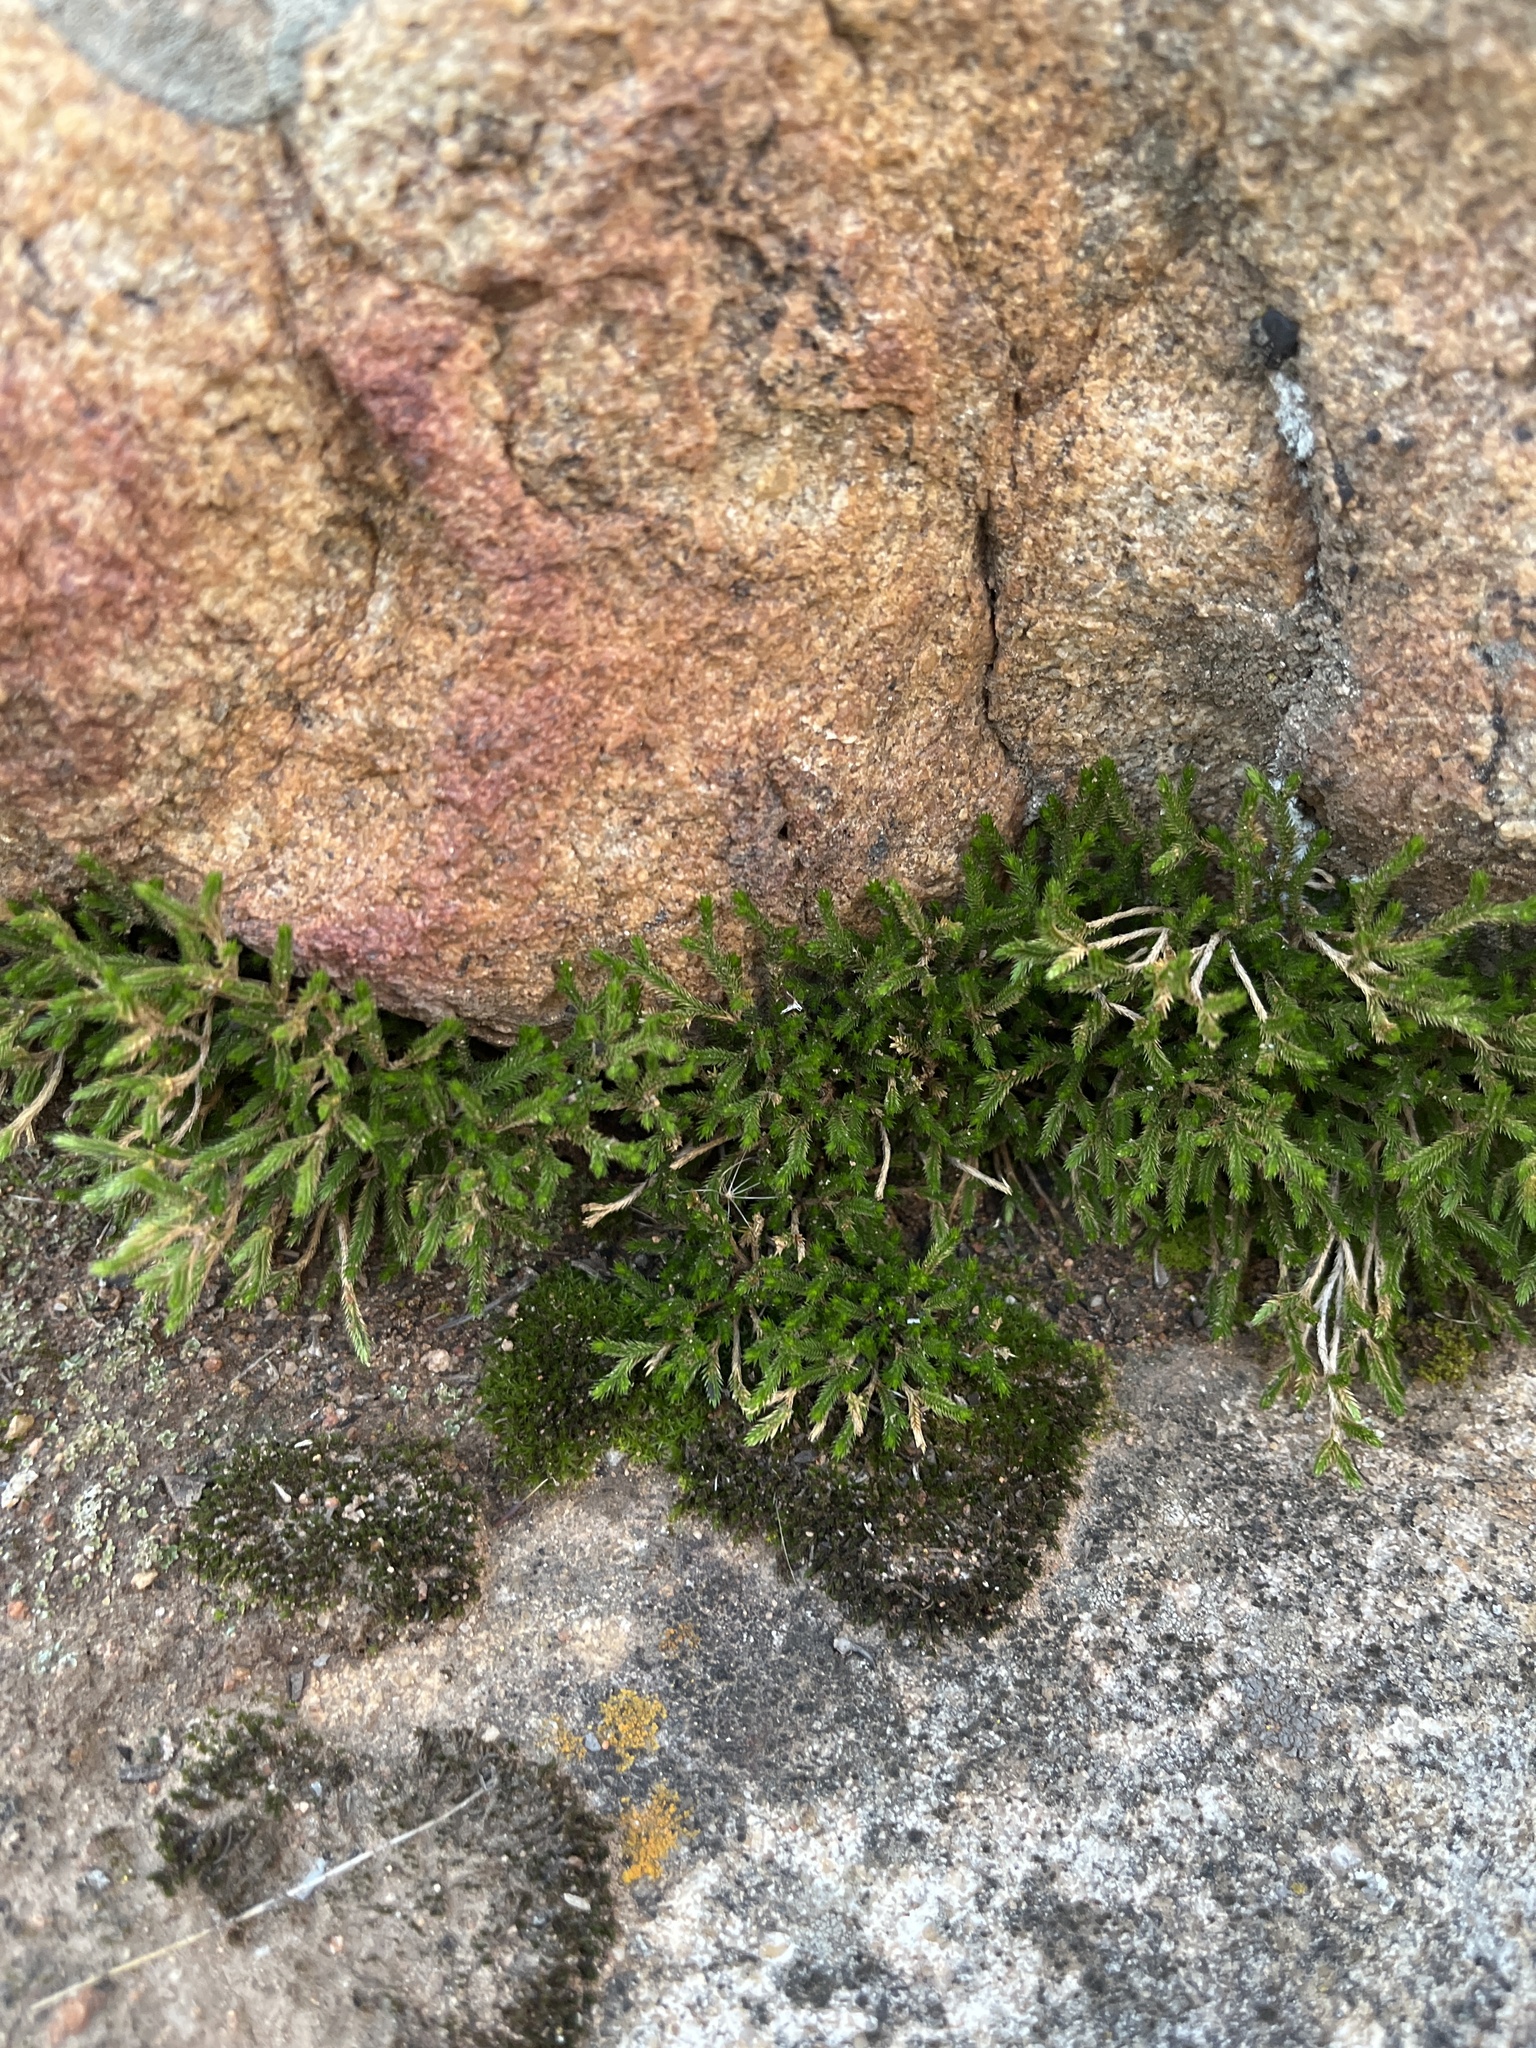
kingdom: Plantae
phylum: Tracheophyta
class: Lycopodiopsida
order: Selaginellales
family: Selaginellaceae
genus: Selaginella
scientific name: Selaginella bigelovii
